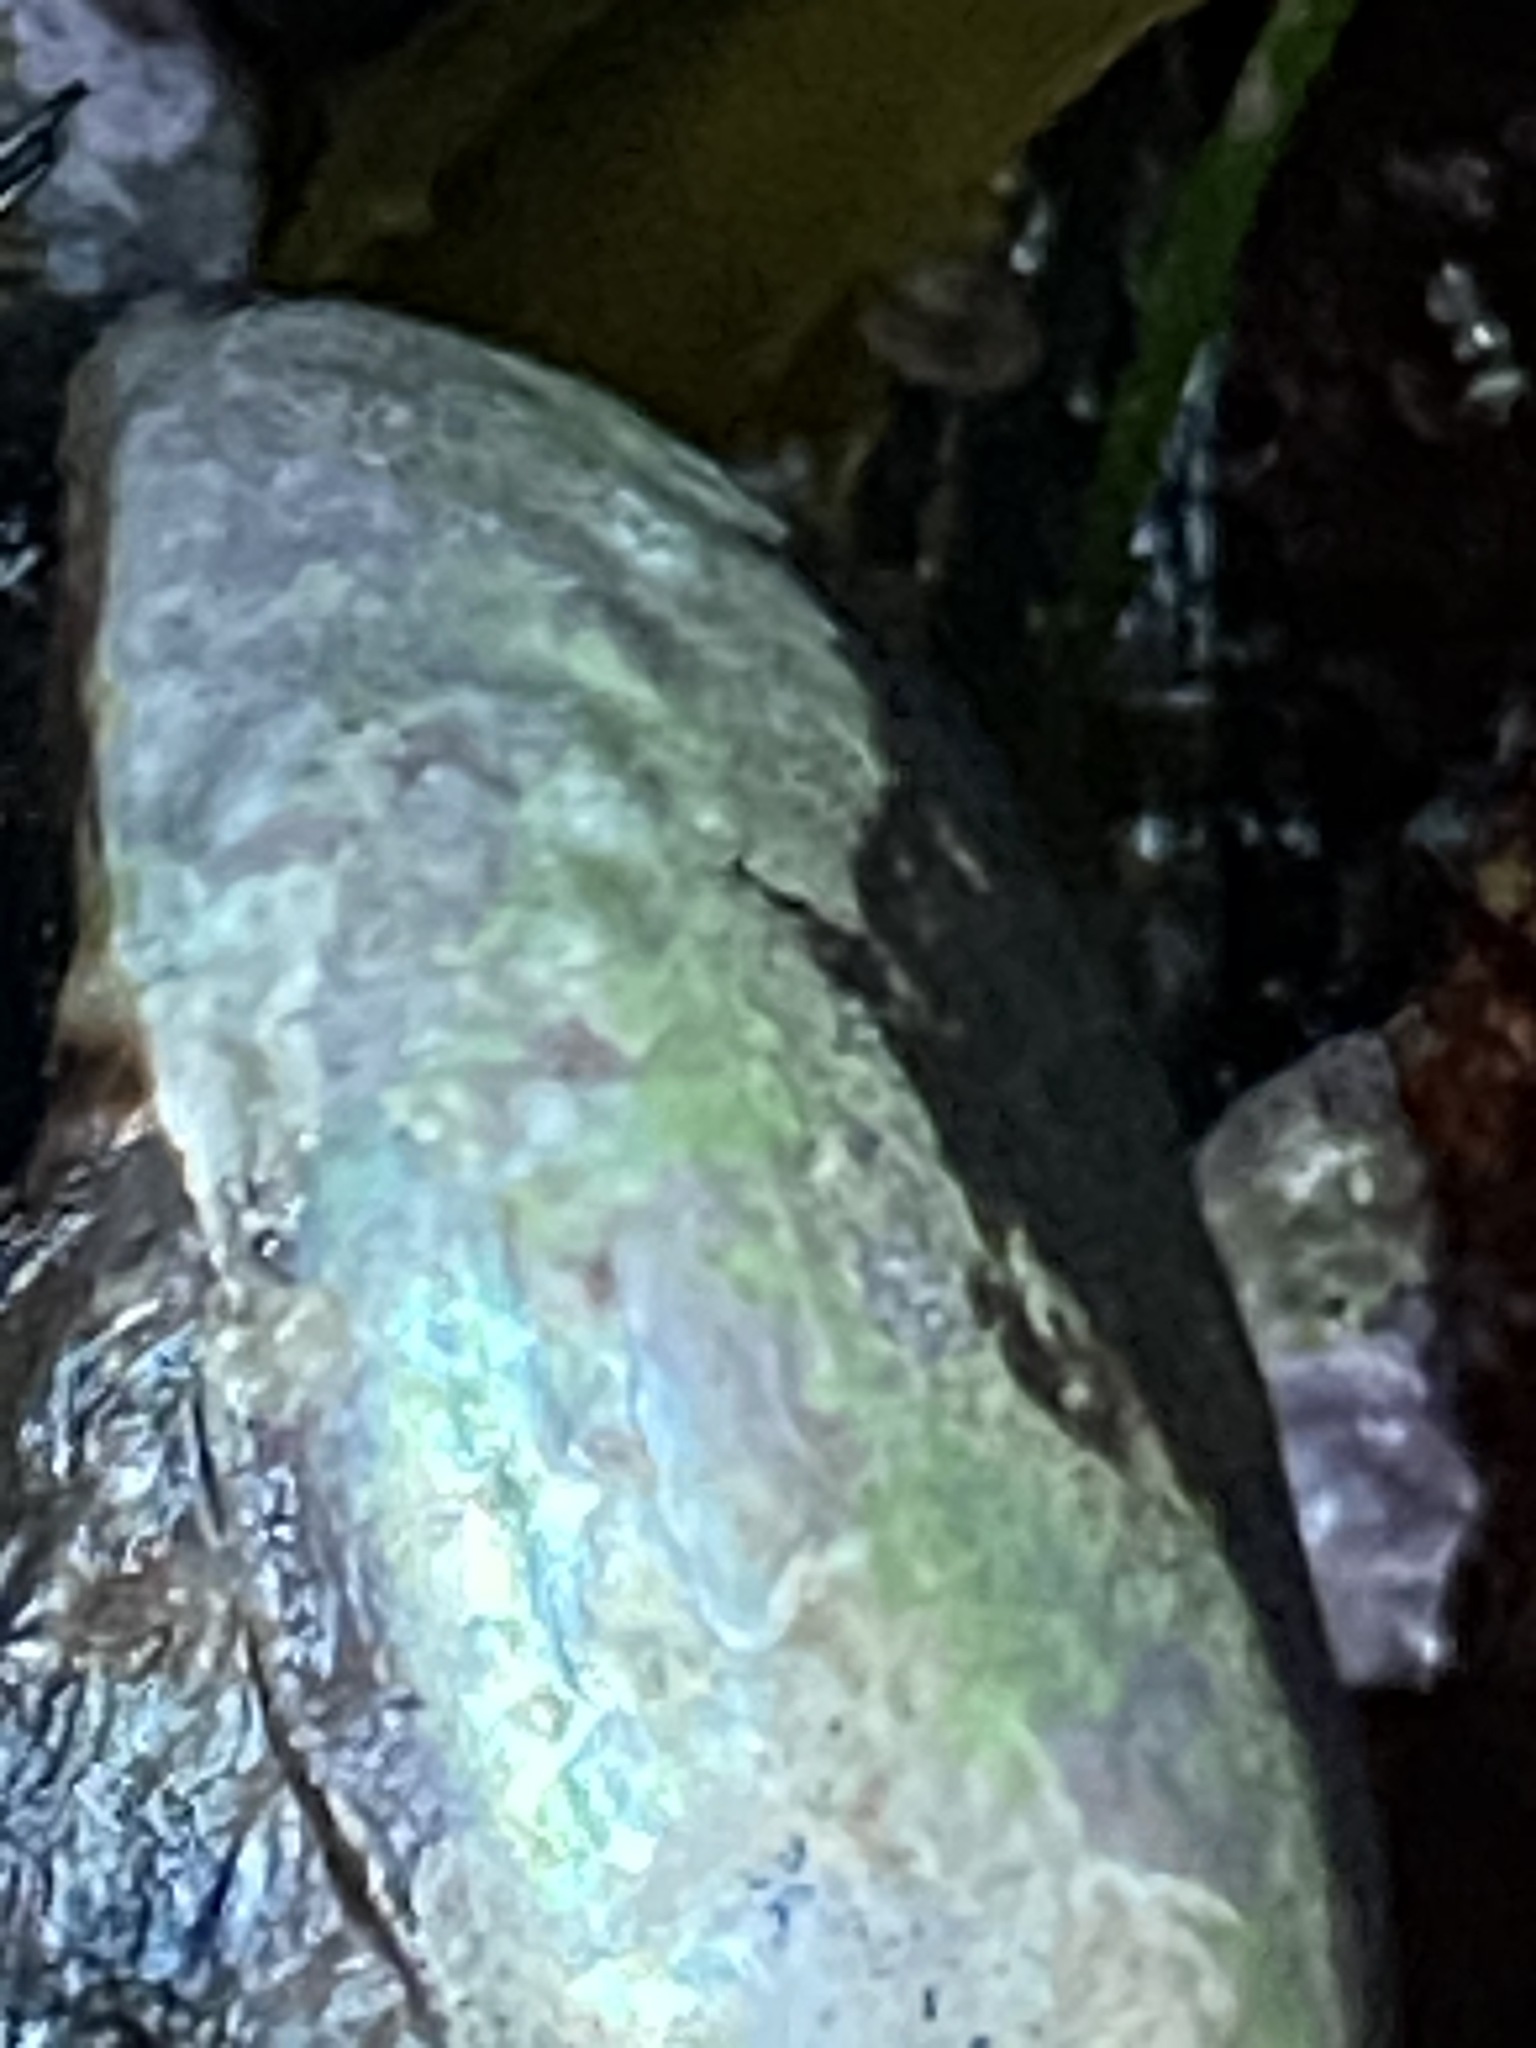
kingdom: Animalia
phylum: Mollusca
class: Gastropoda
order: Lepetellida
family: Haliotidae
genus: Haliotis
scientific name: Haliotis cracherodii
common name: Black abalone
